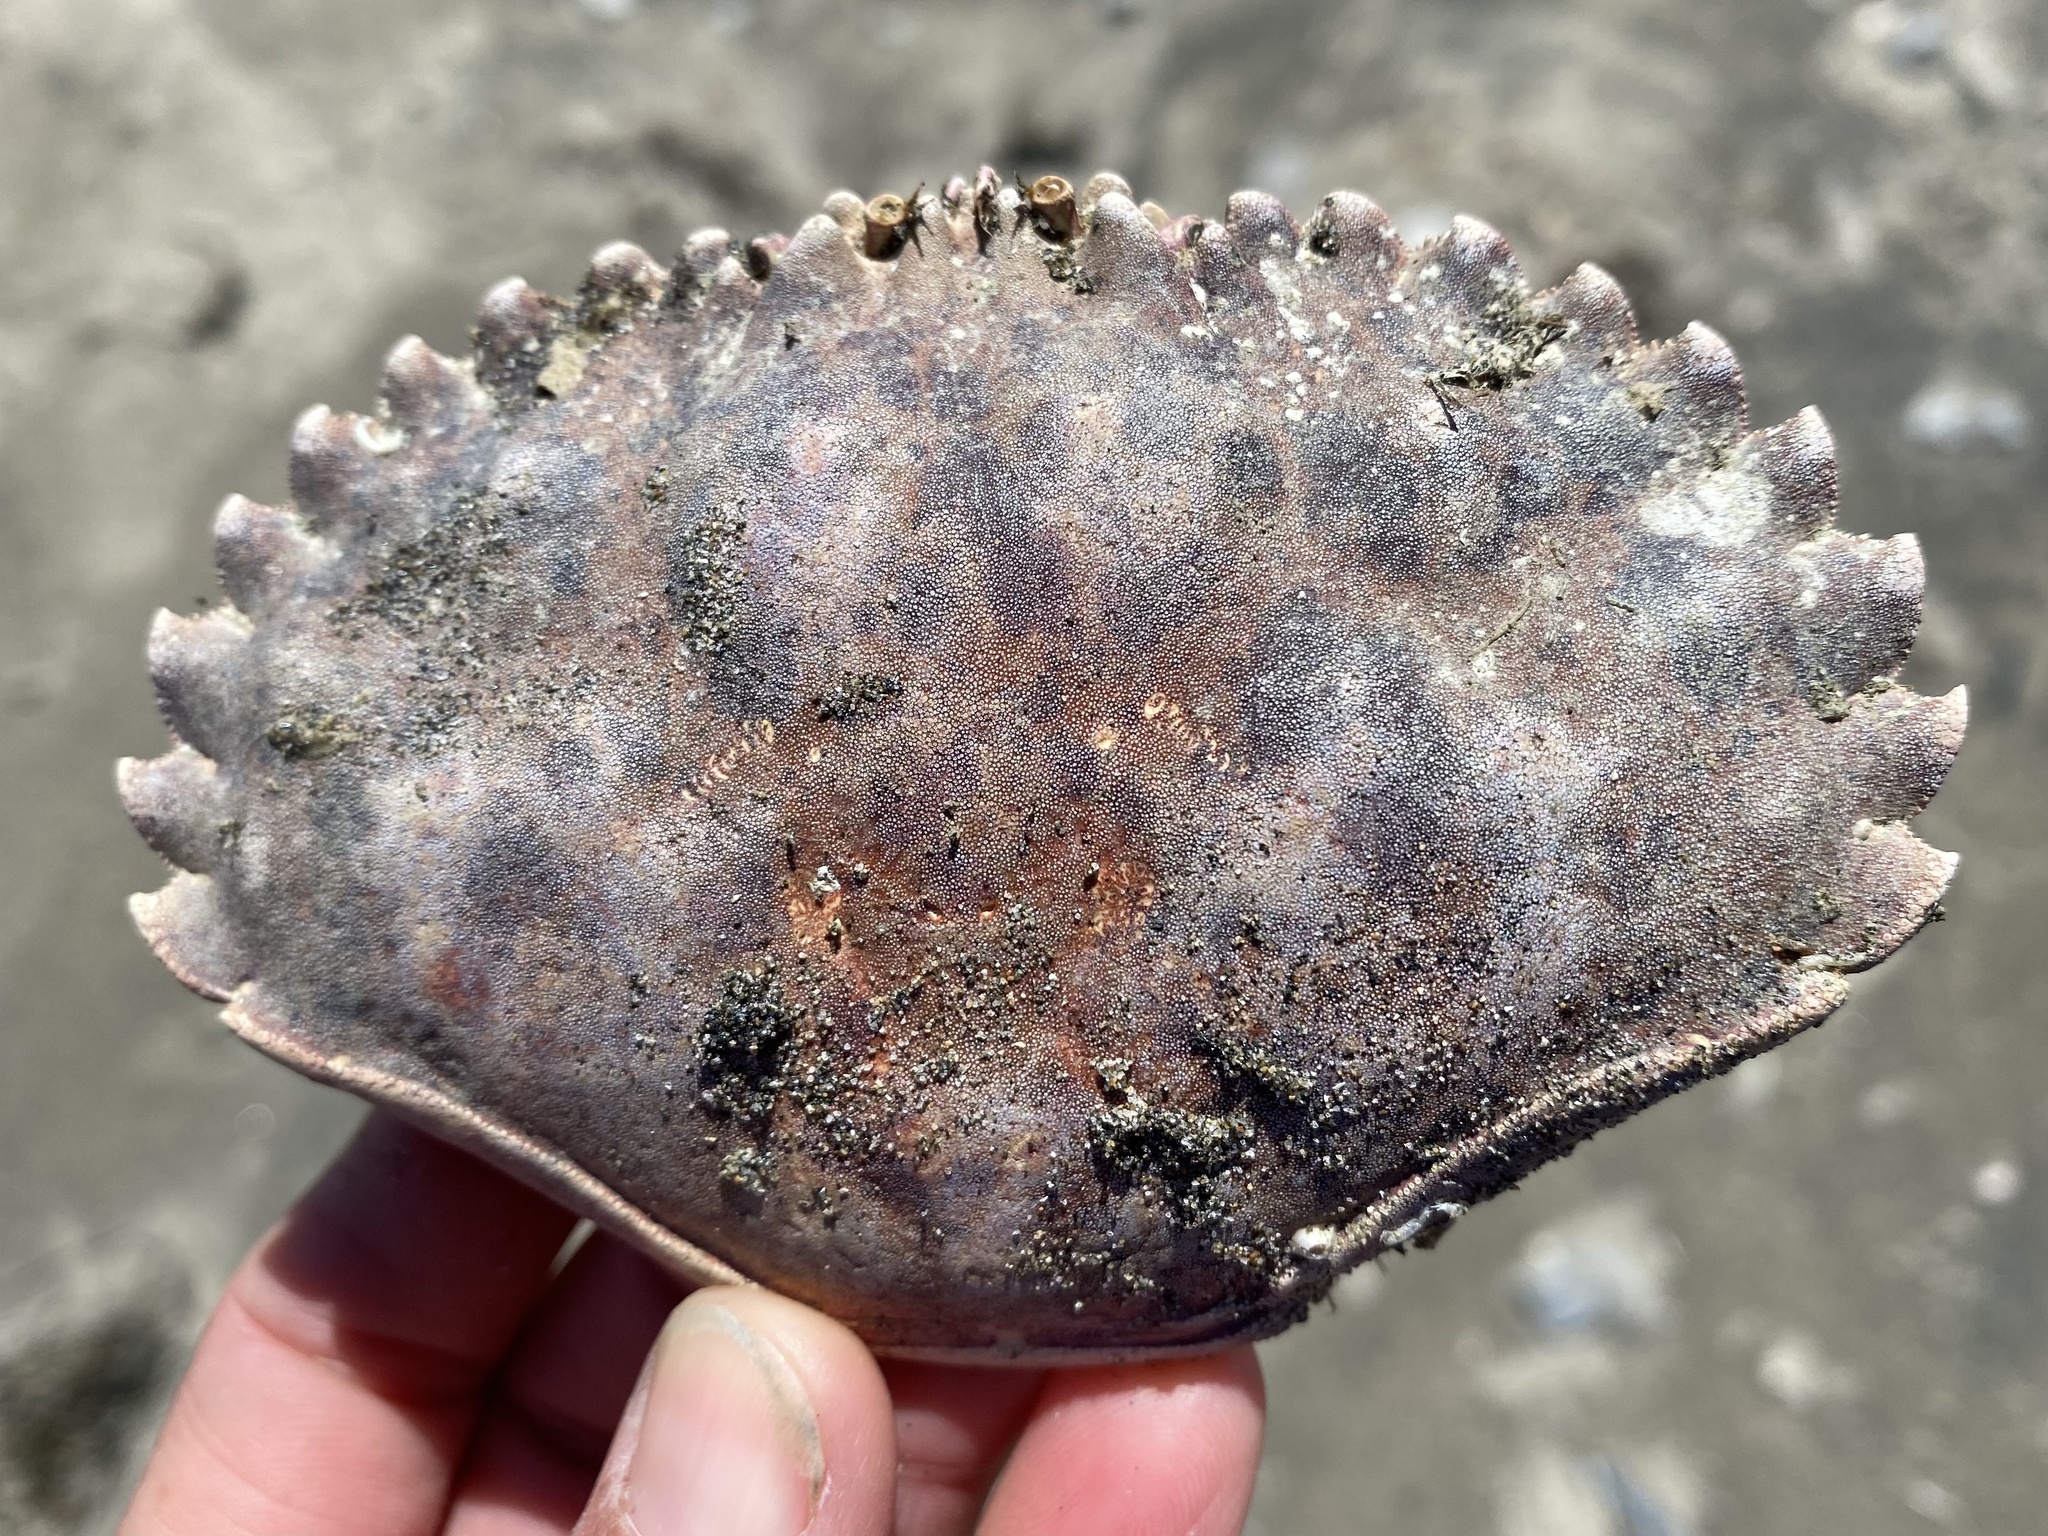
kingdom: Animalia
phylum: Arthropoda
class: Malacostraca
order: Decapoda
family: Cancridae
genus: Romaleon
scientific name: Romaleon antennarium
